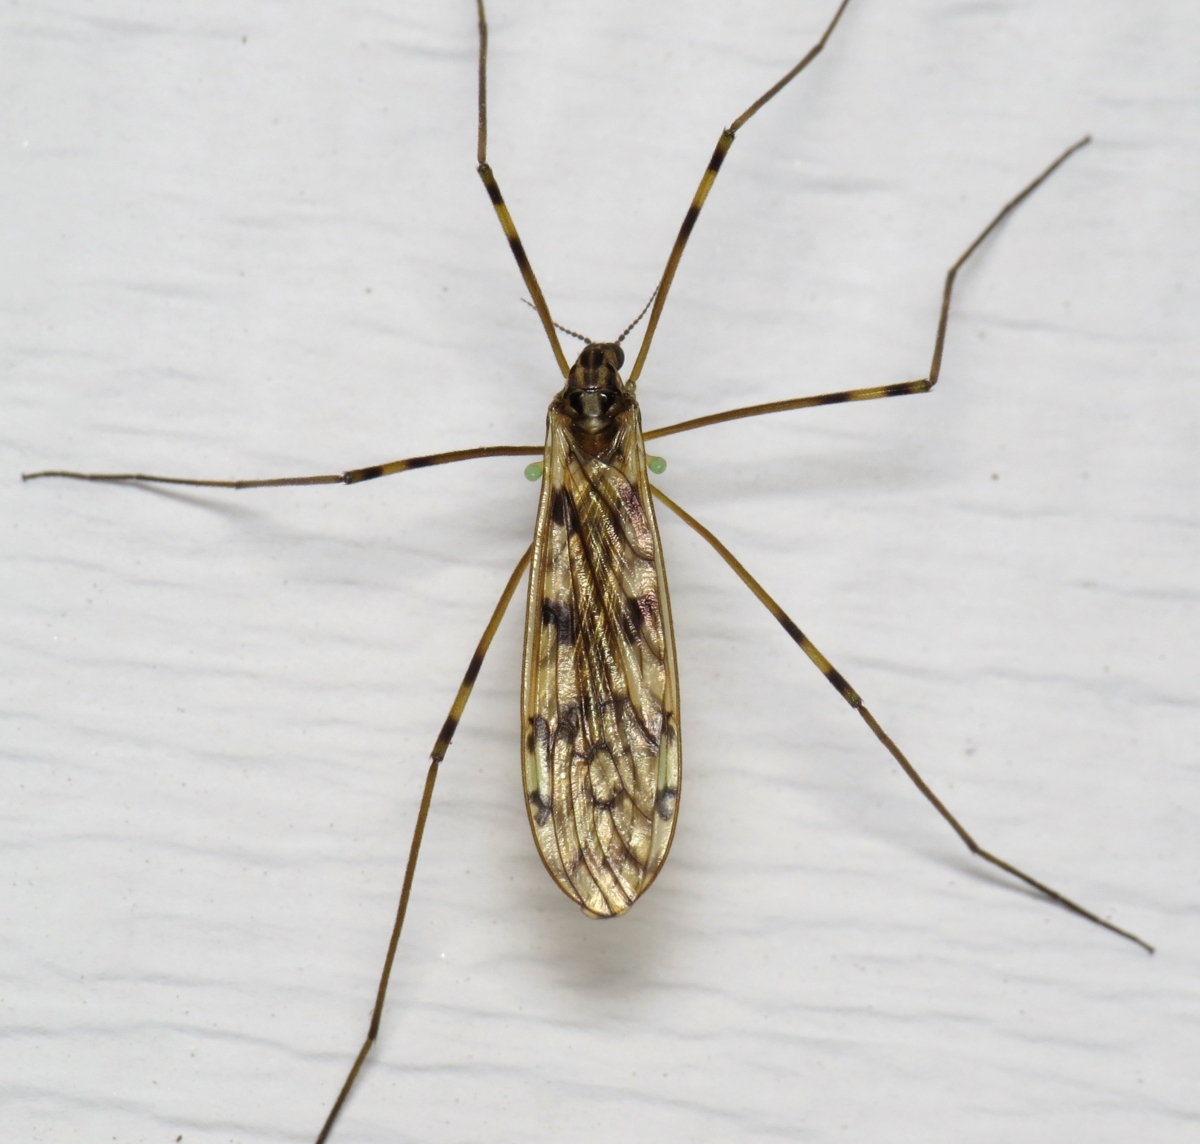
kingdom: Animalia
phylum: Arthropoda
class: Insecta
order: Diptera
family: Limoniidae
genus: Limonia
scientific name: Limonia cinctipes
